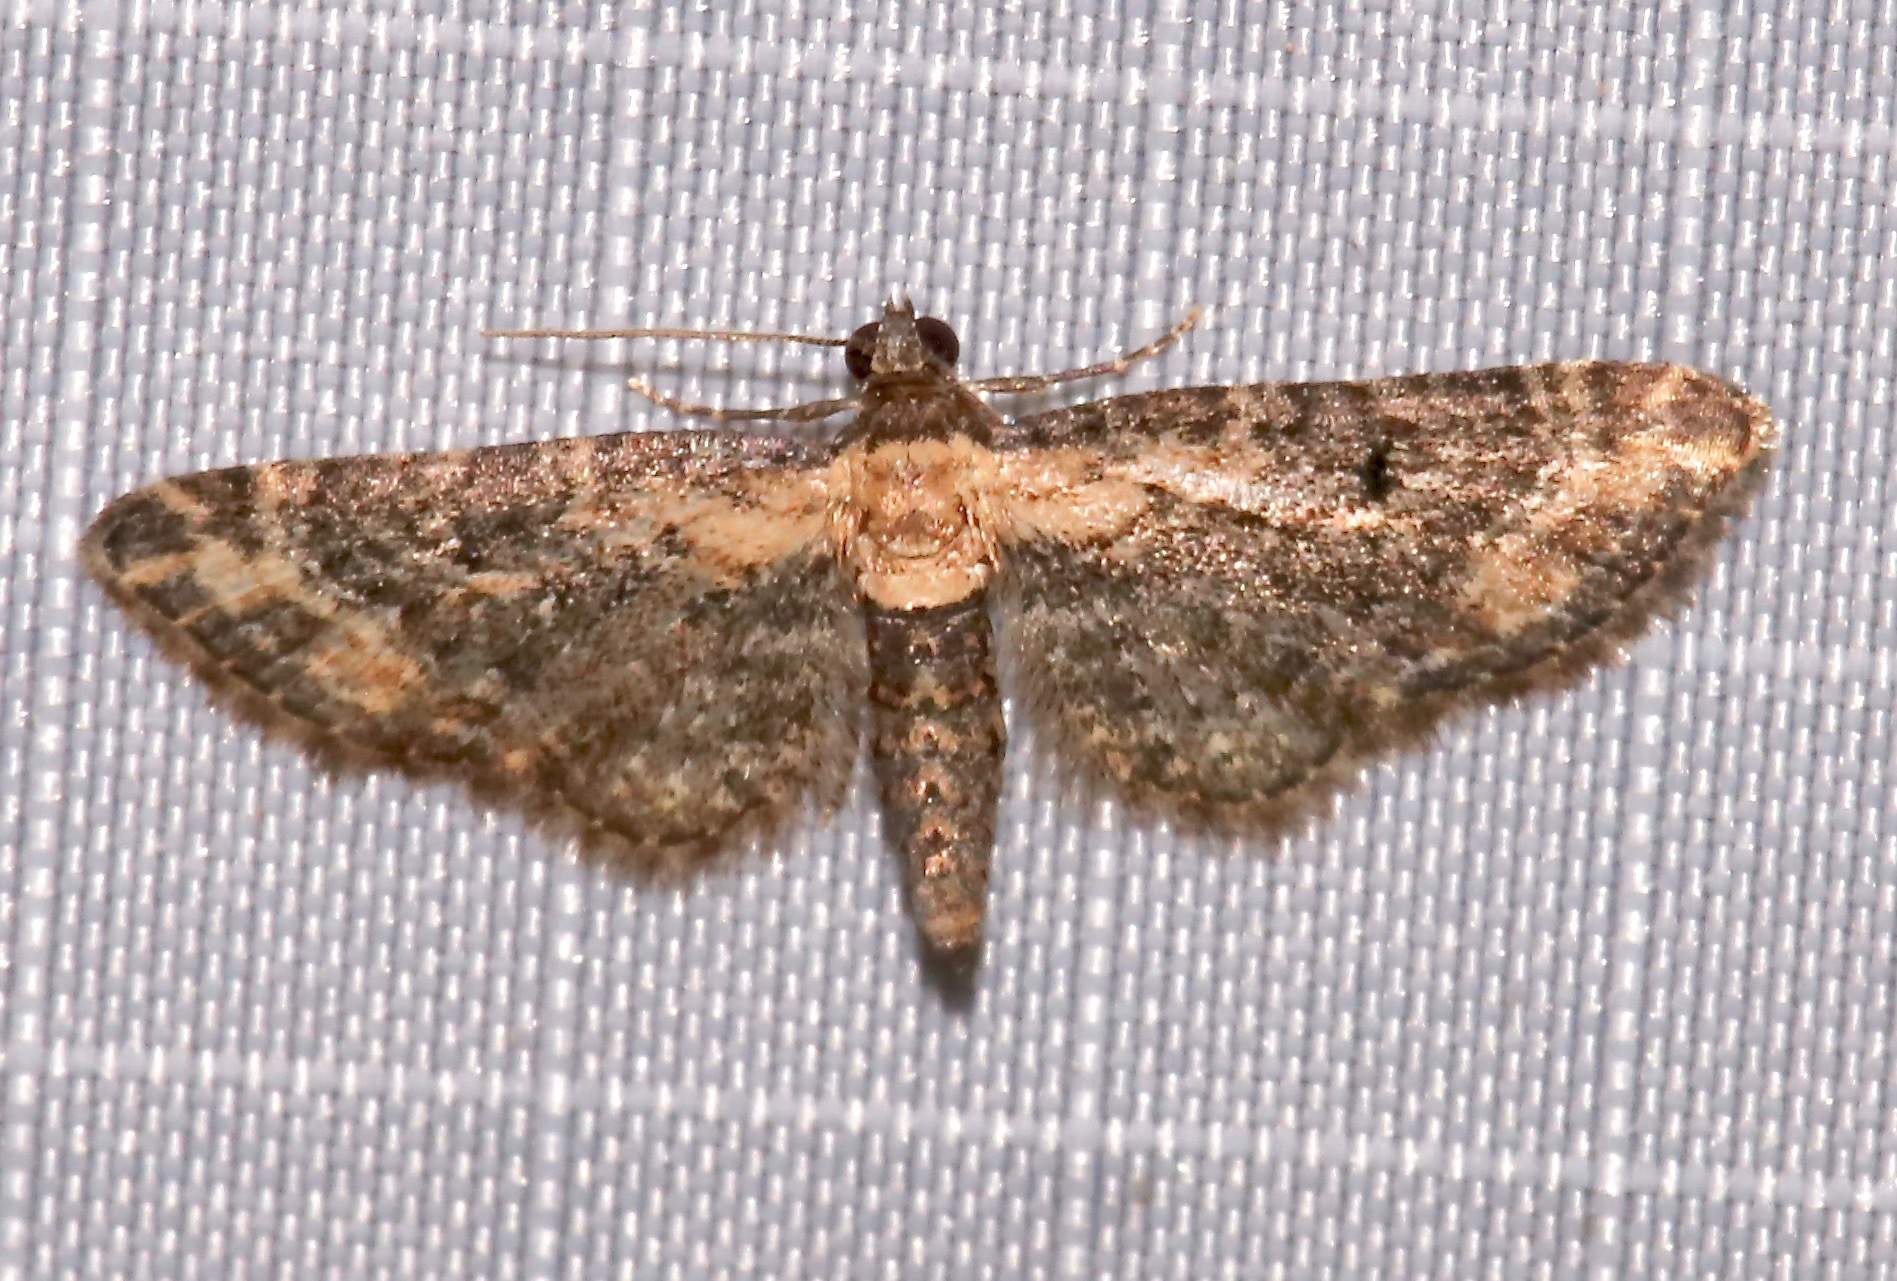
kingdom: Animalia
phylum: Arthropoda
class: Insecta
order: Lepidoptera
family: Geometridae
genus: Eupithecia
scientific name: Eupithecia flavigutta
